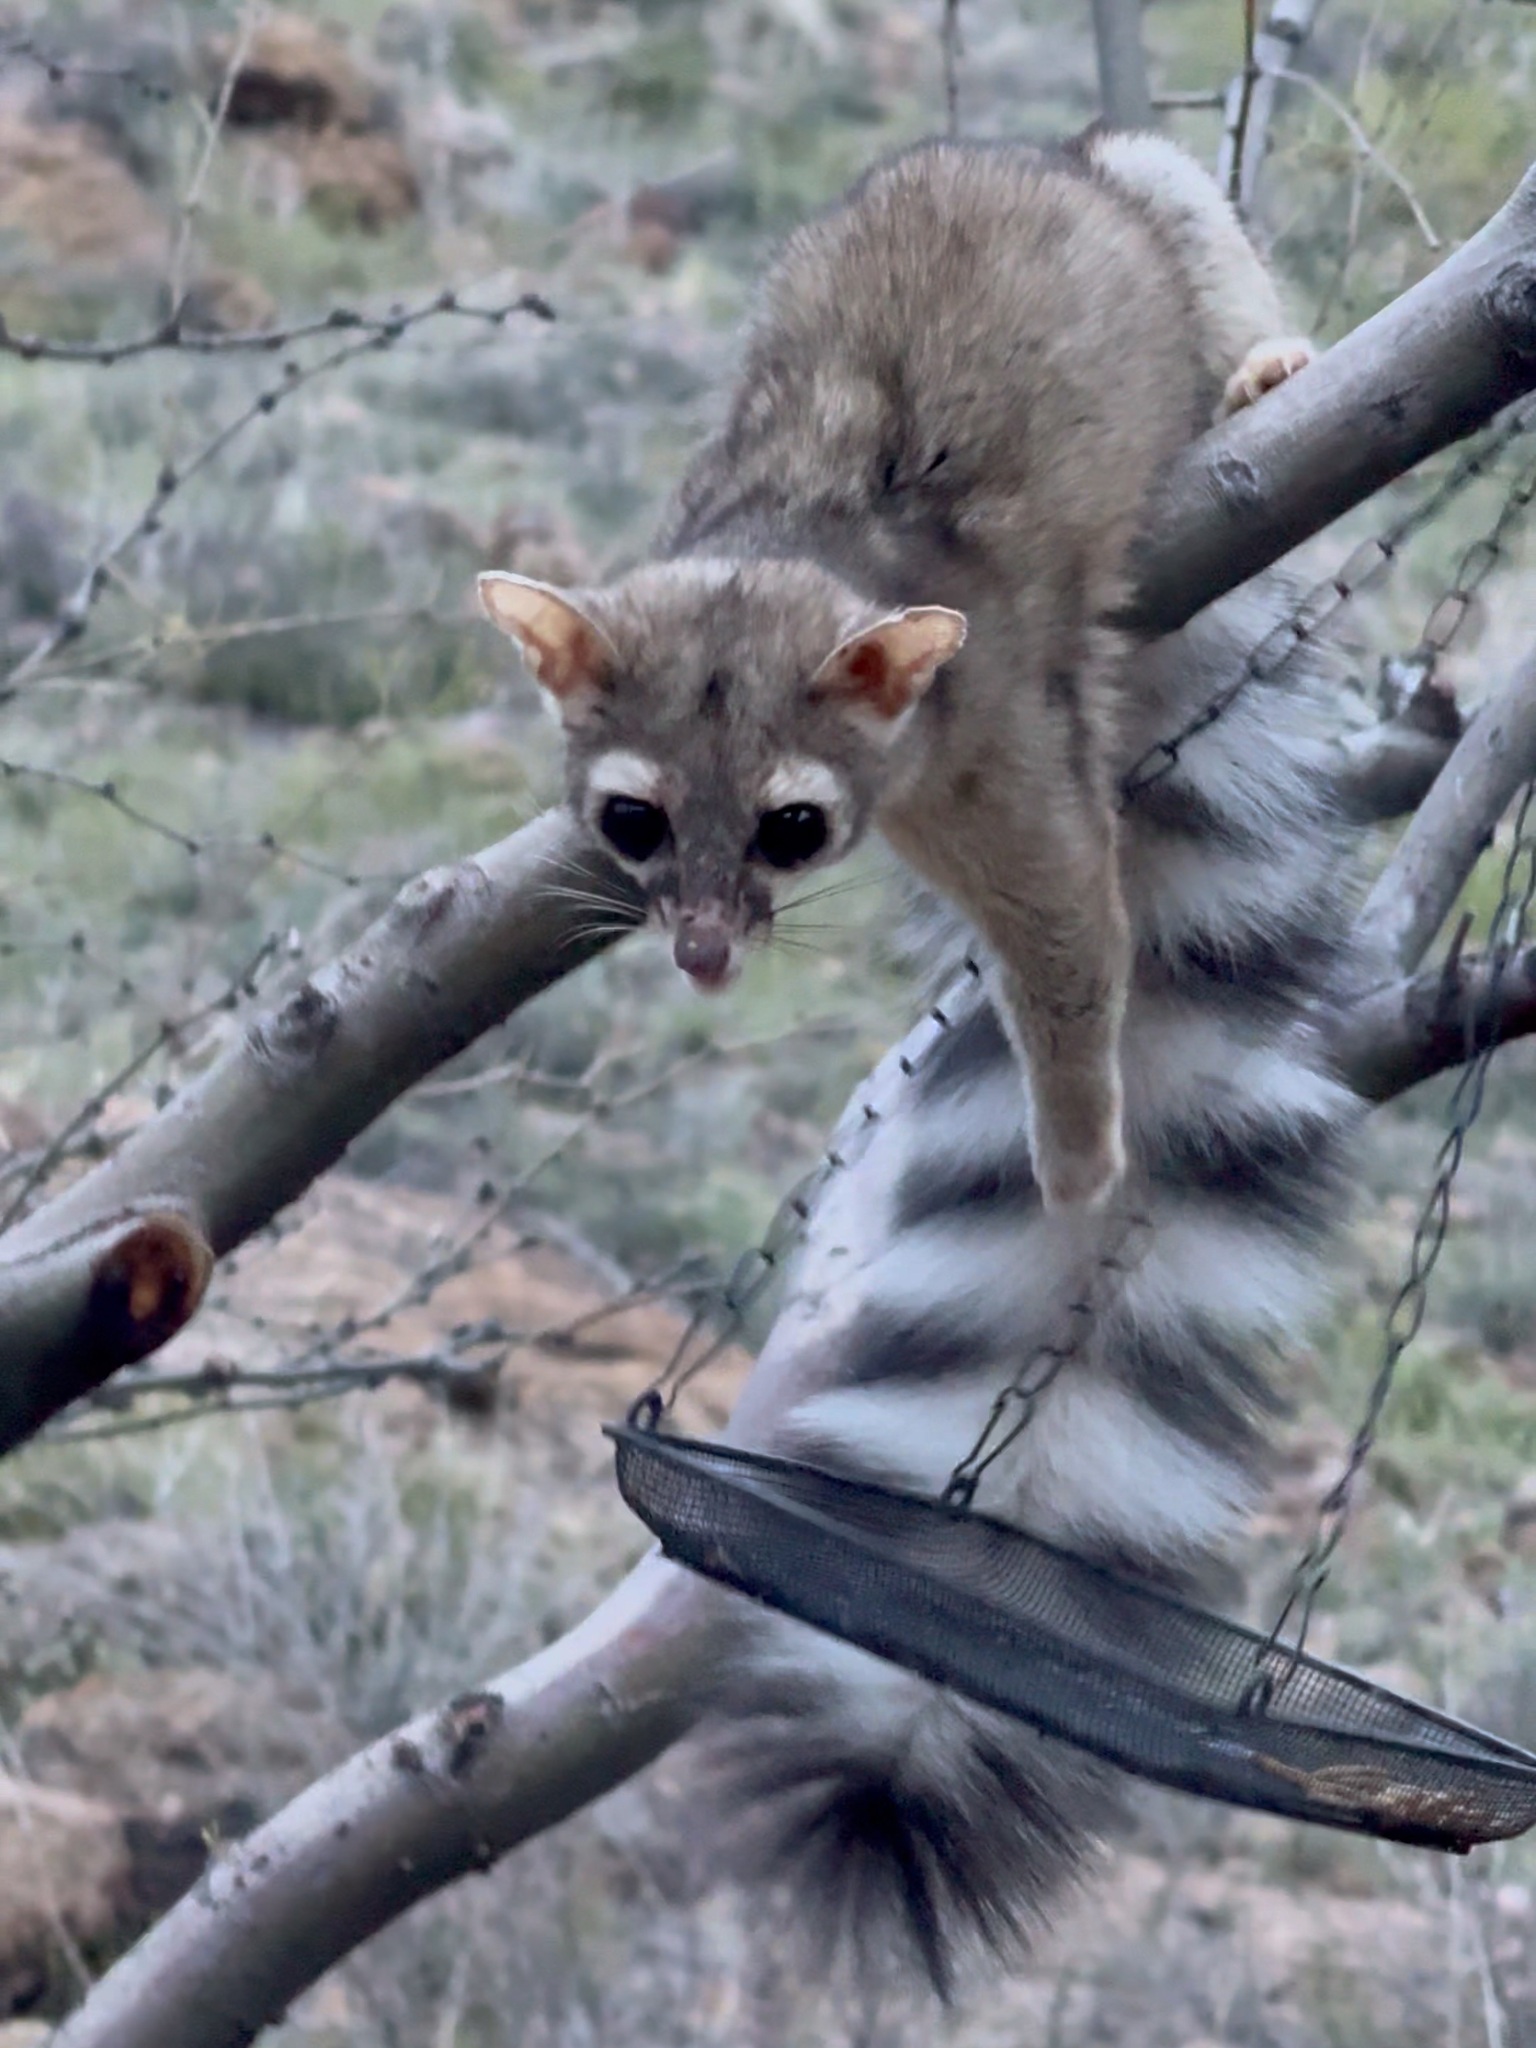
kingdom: Animalia
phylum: Chordata
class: Mammalia
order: Carnivora
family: Procyonidae
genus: Bassariscus
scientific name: Bassariscus astutus
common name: Ringtail
